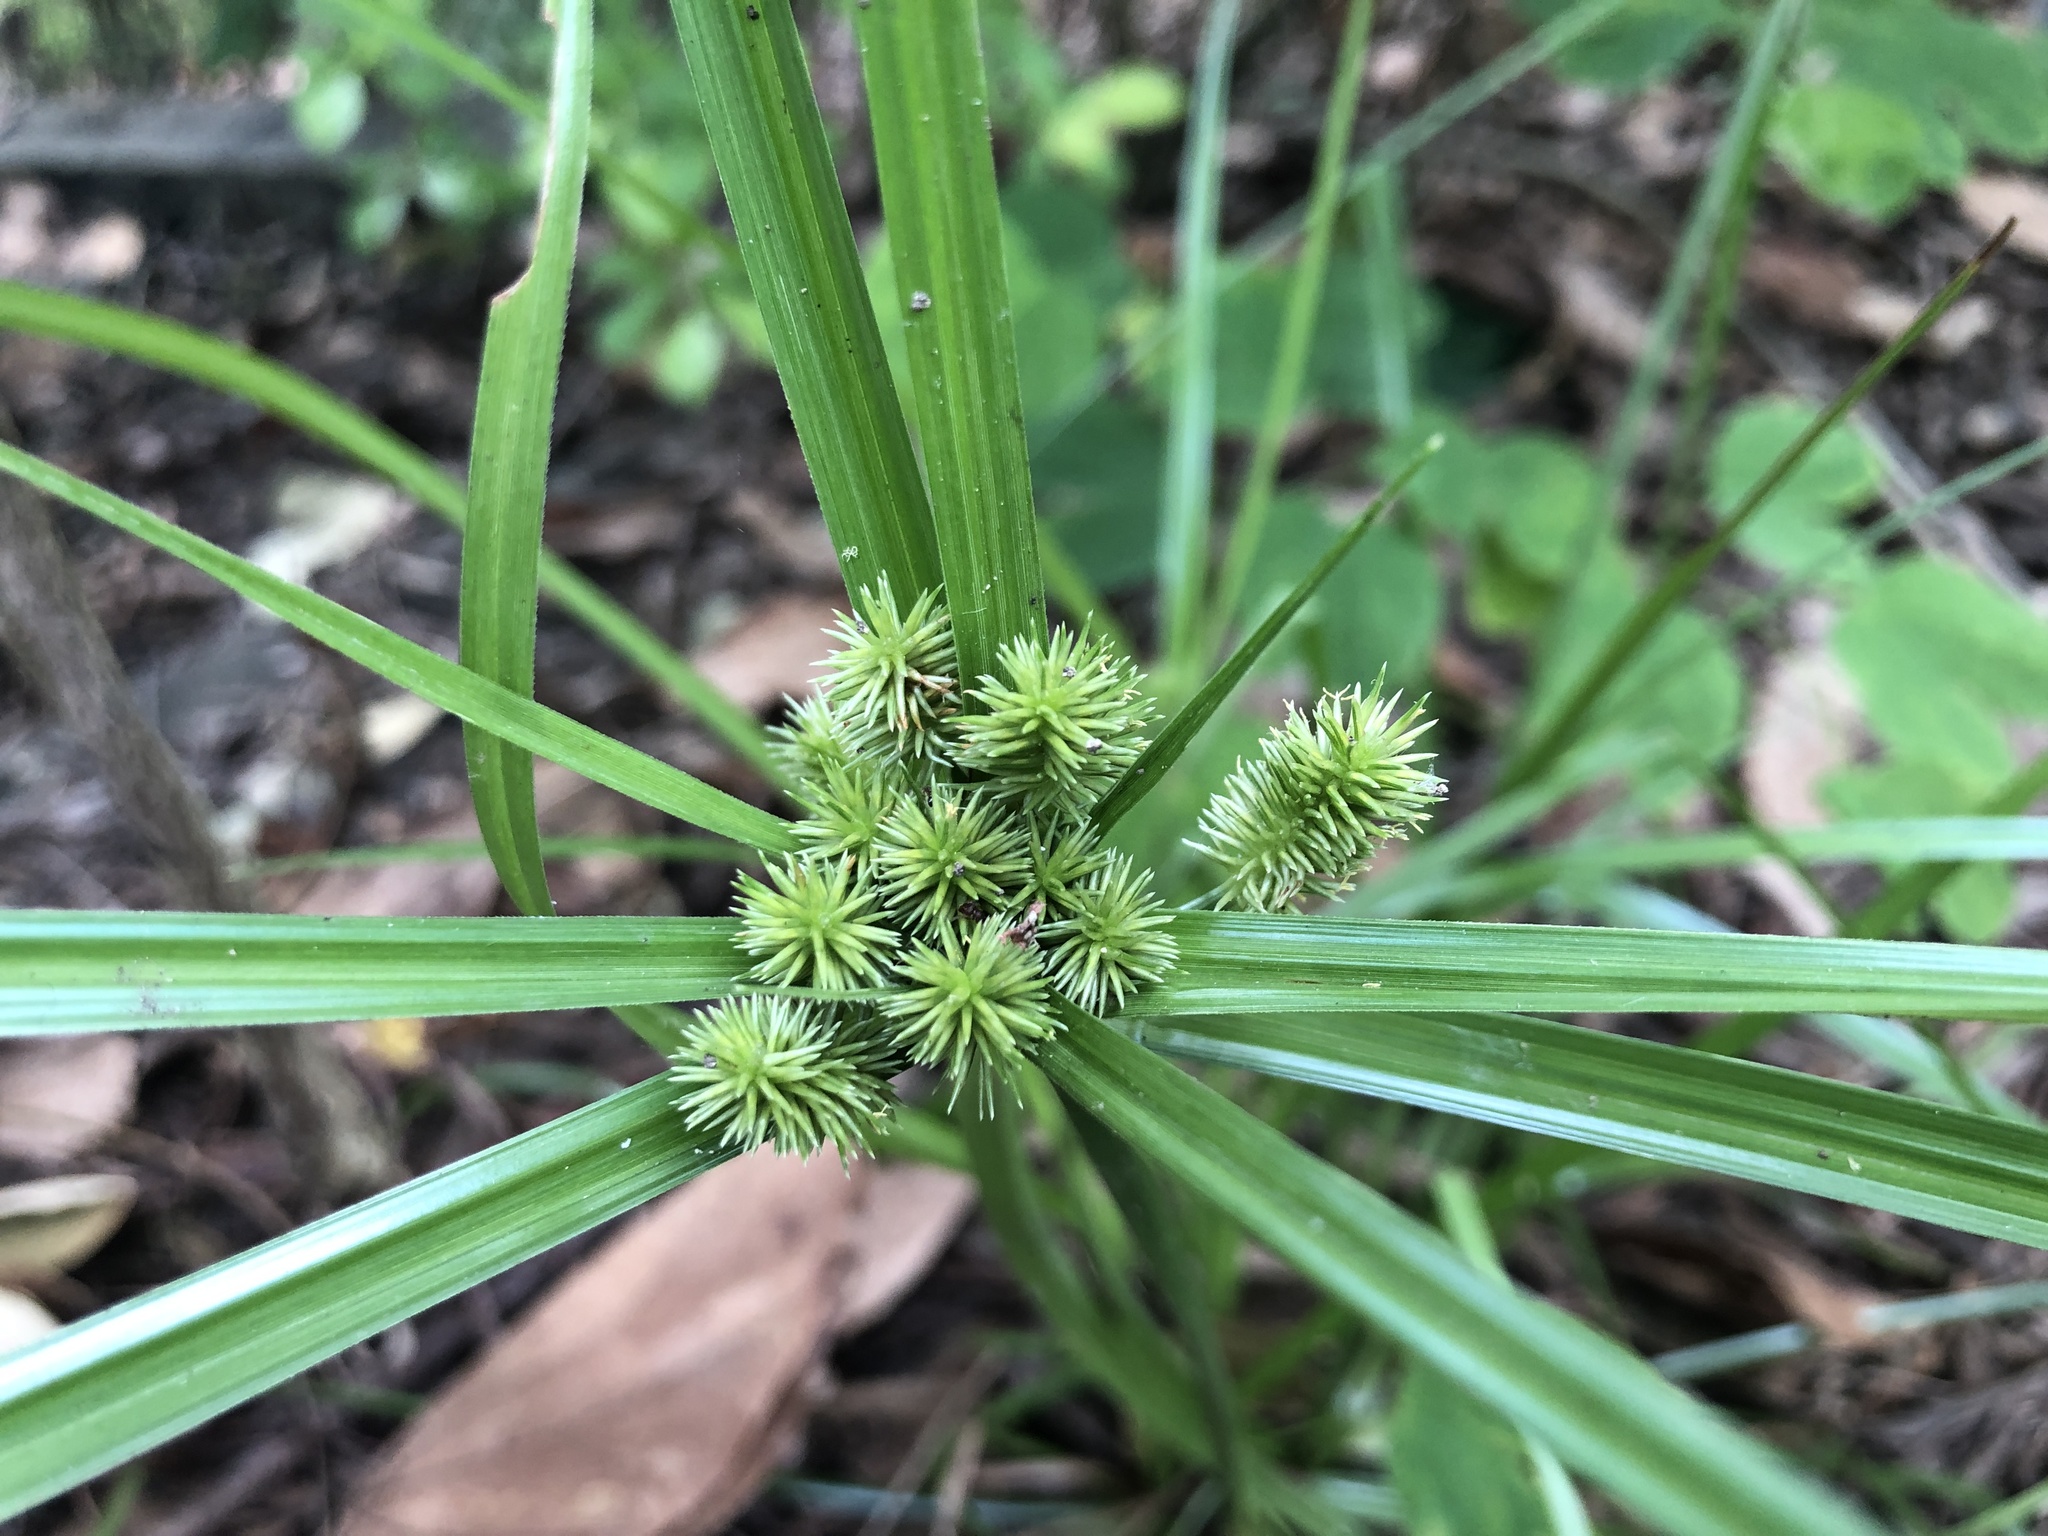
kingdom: Plantae
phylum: Tracheophyta
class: Liliopsida
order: Poales
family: Cyperaceae
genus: Cyperus
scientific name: Cyperus cyperoides
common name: Pacific island flat sedge
